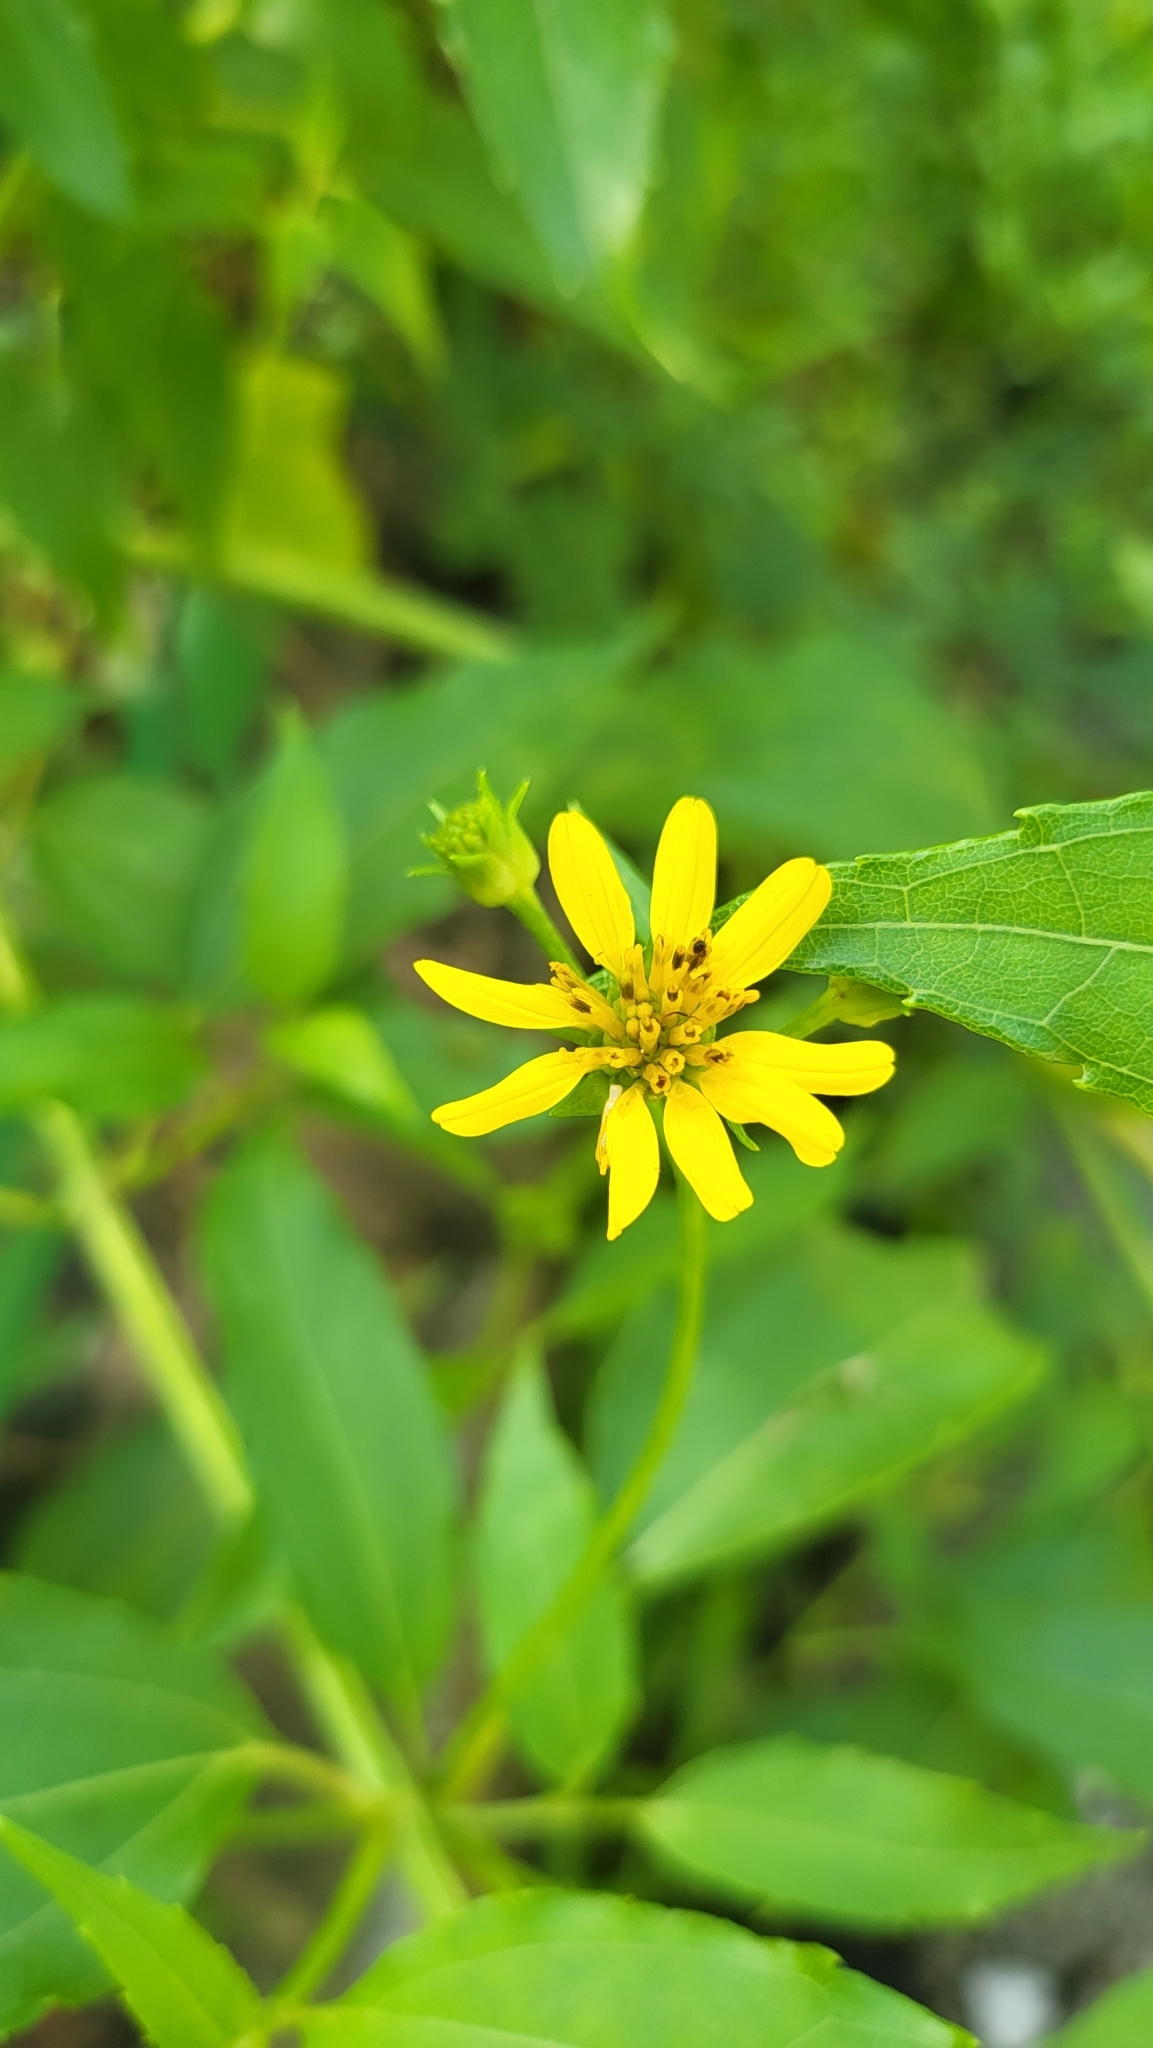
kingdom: Plantae
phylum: Tracheophyta
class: Magnoliopsida
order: Asterales
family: Asteraceae
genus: Wollastonia
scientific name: Wollastonia biflora
